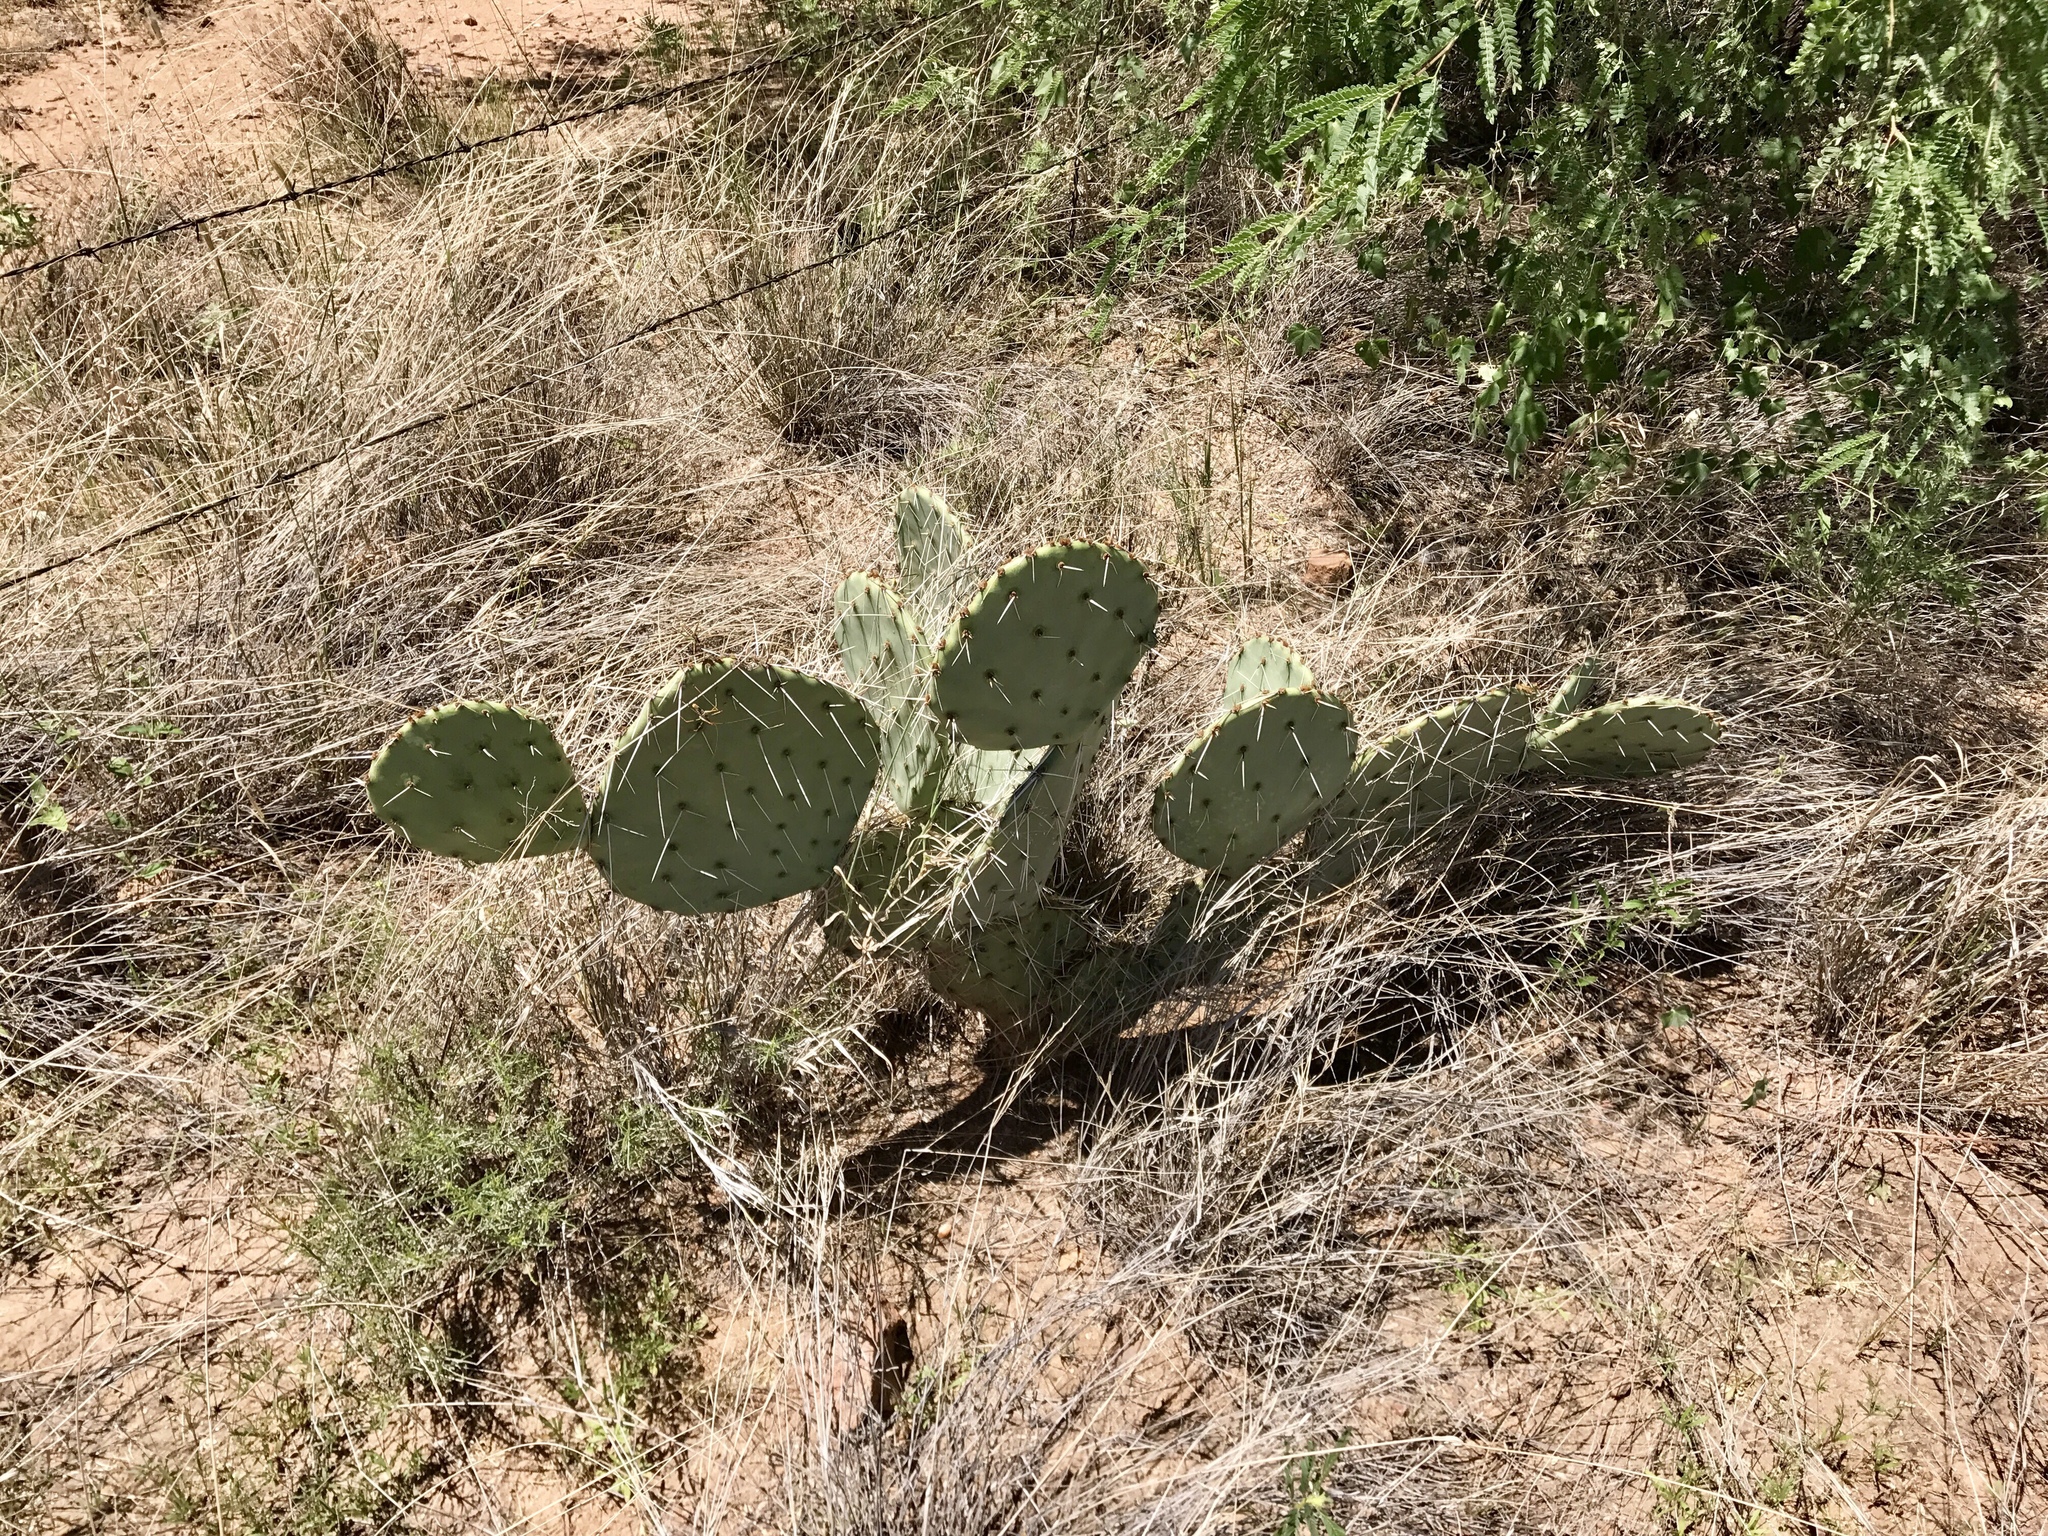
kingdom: Plantae
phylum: Tracheophyta
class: Magnoliopsida
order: Caryophyllales
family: Cactaceae
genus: Opuntia
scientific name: Opuntia engelmannii
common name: Cactus-apple
